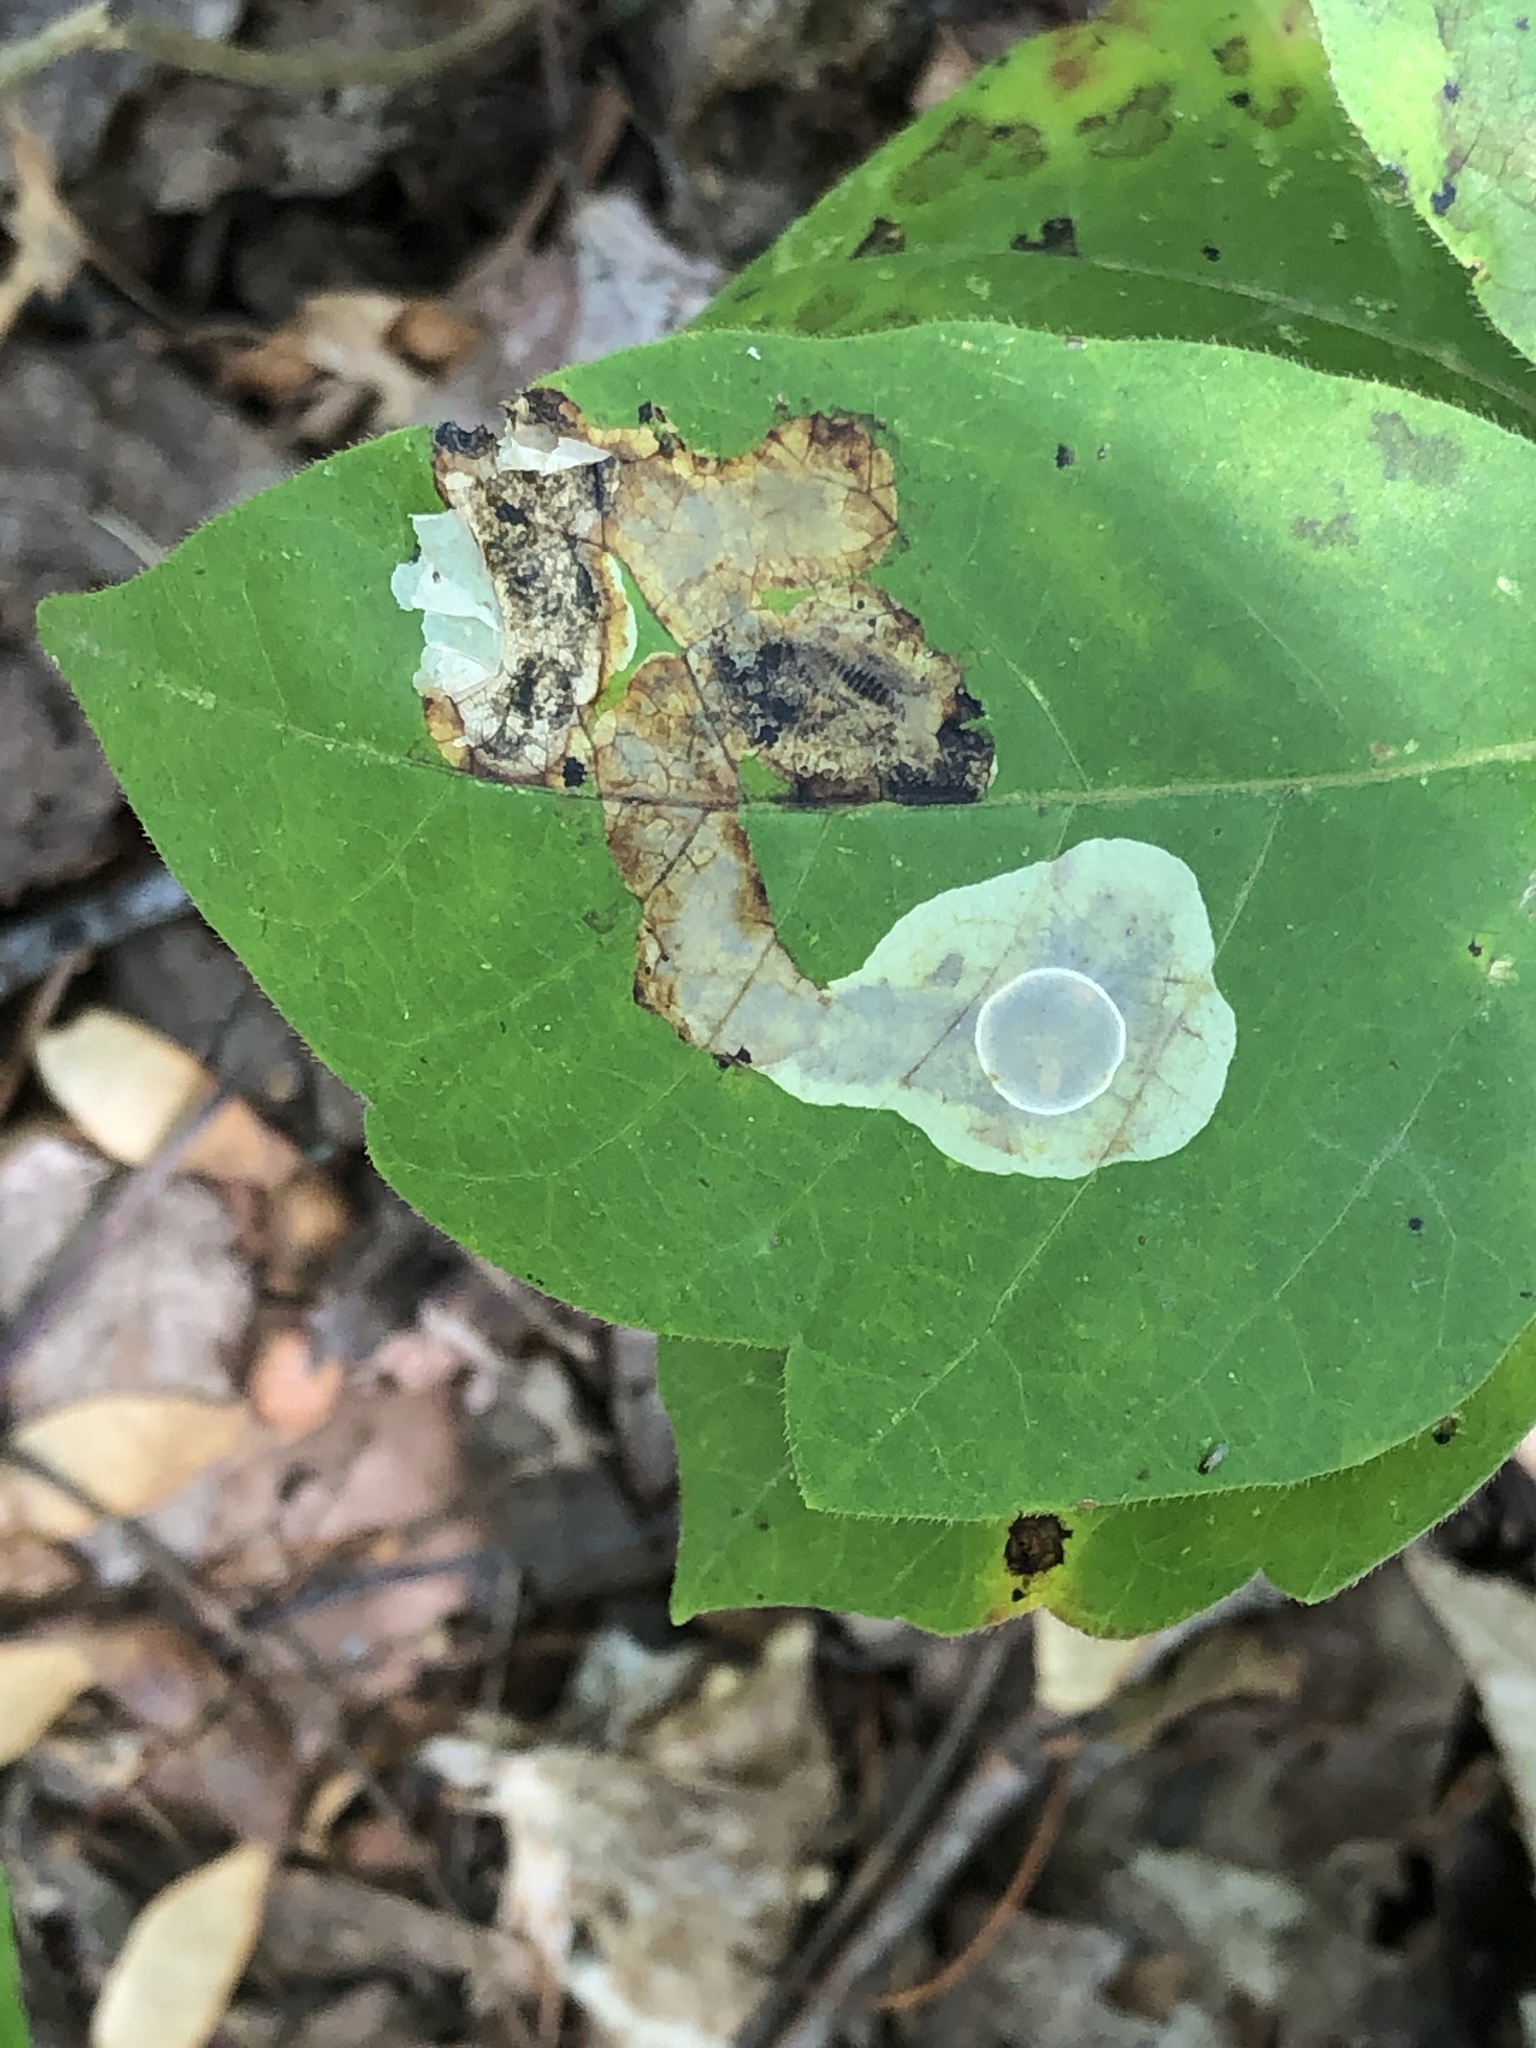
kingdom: Animalia
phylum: Arthropoda
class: Insecta
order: Lepidoptera
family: Gracillariidae
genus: Cameraria
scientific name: Cameraria guttifinitella
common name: Poison ivy leaf-miner moth
